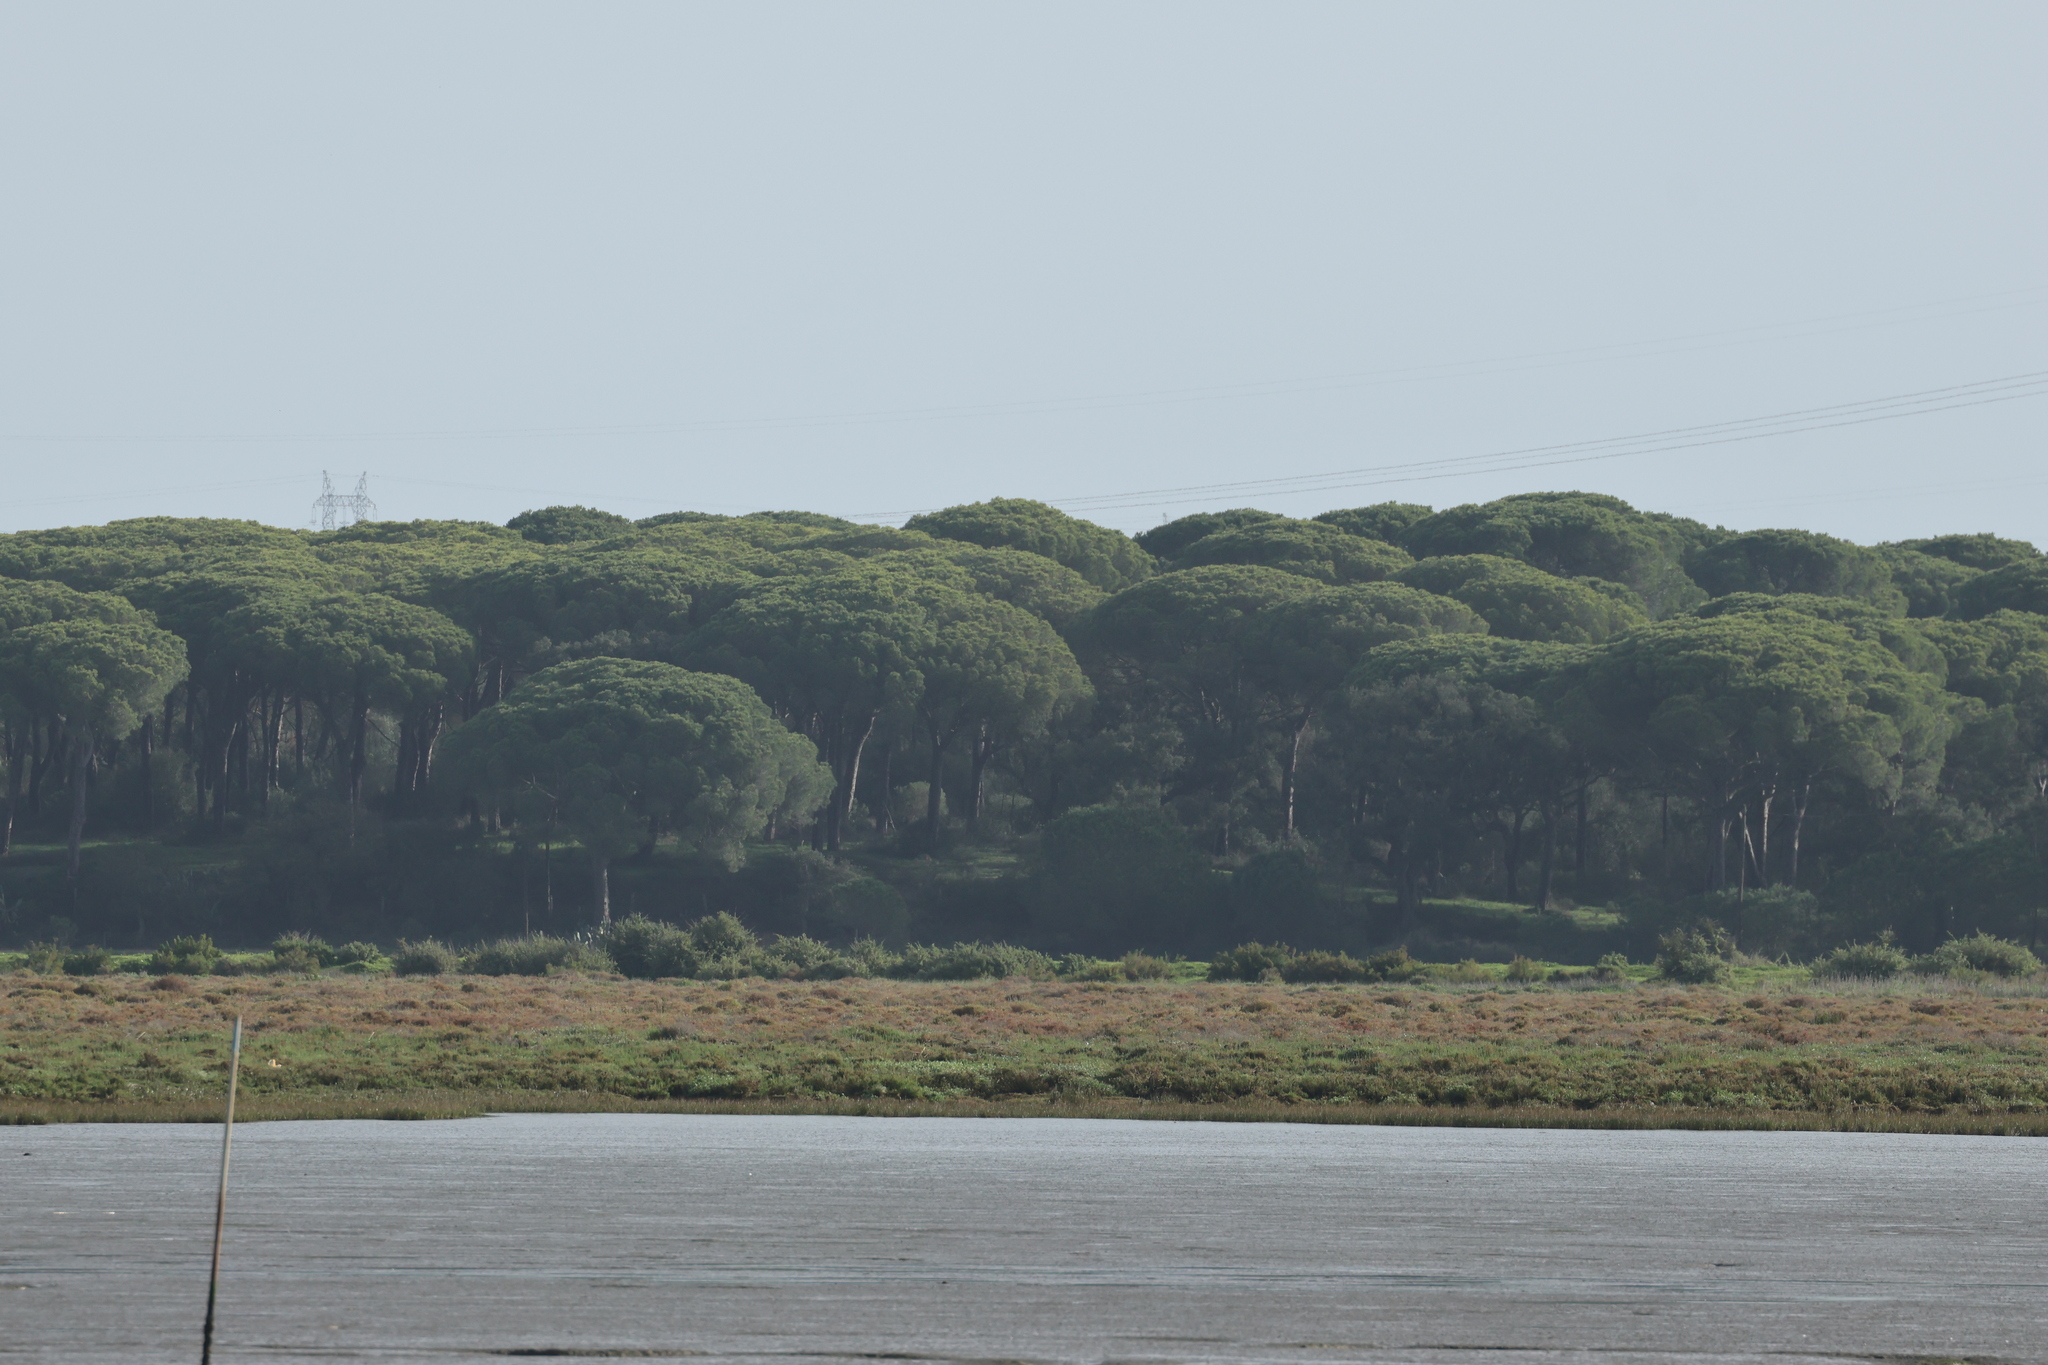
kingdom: Plantae
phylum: Tracheophyta
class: Pinopsida
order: Pinales
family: Pinaceae
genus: Pinus
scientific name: Pinus pinea
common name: Italian stone pine
